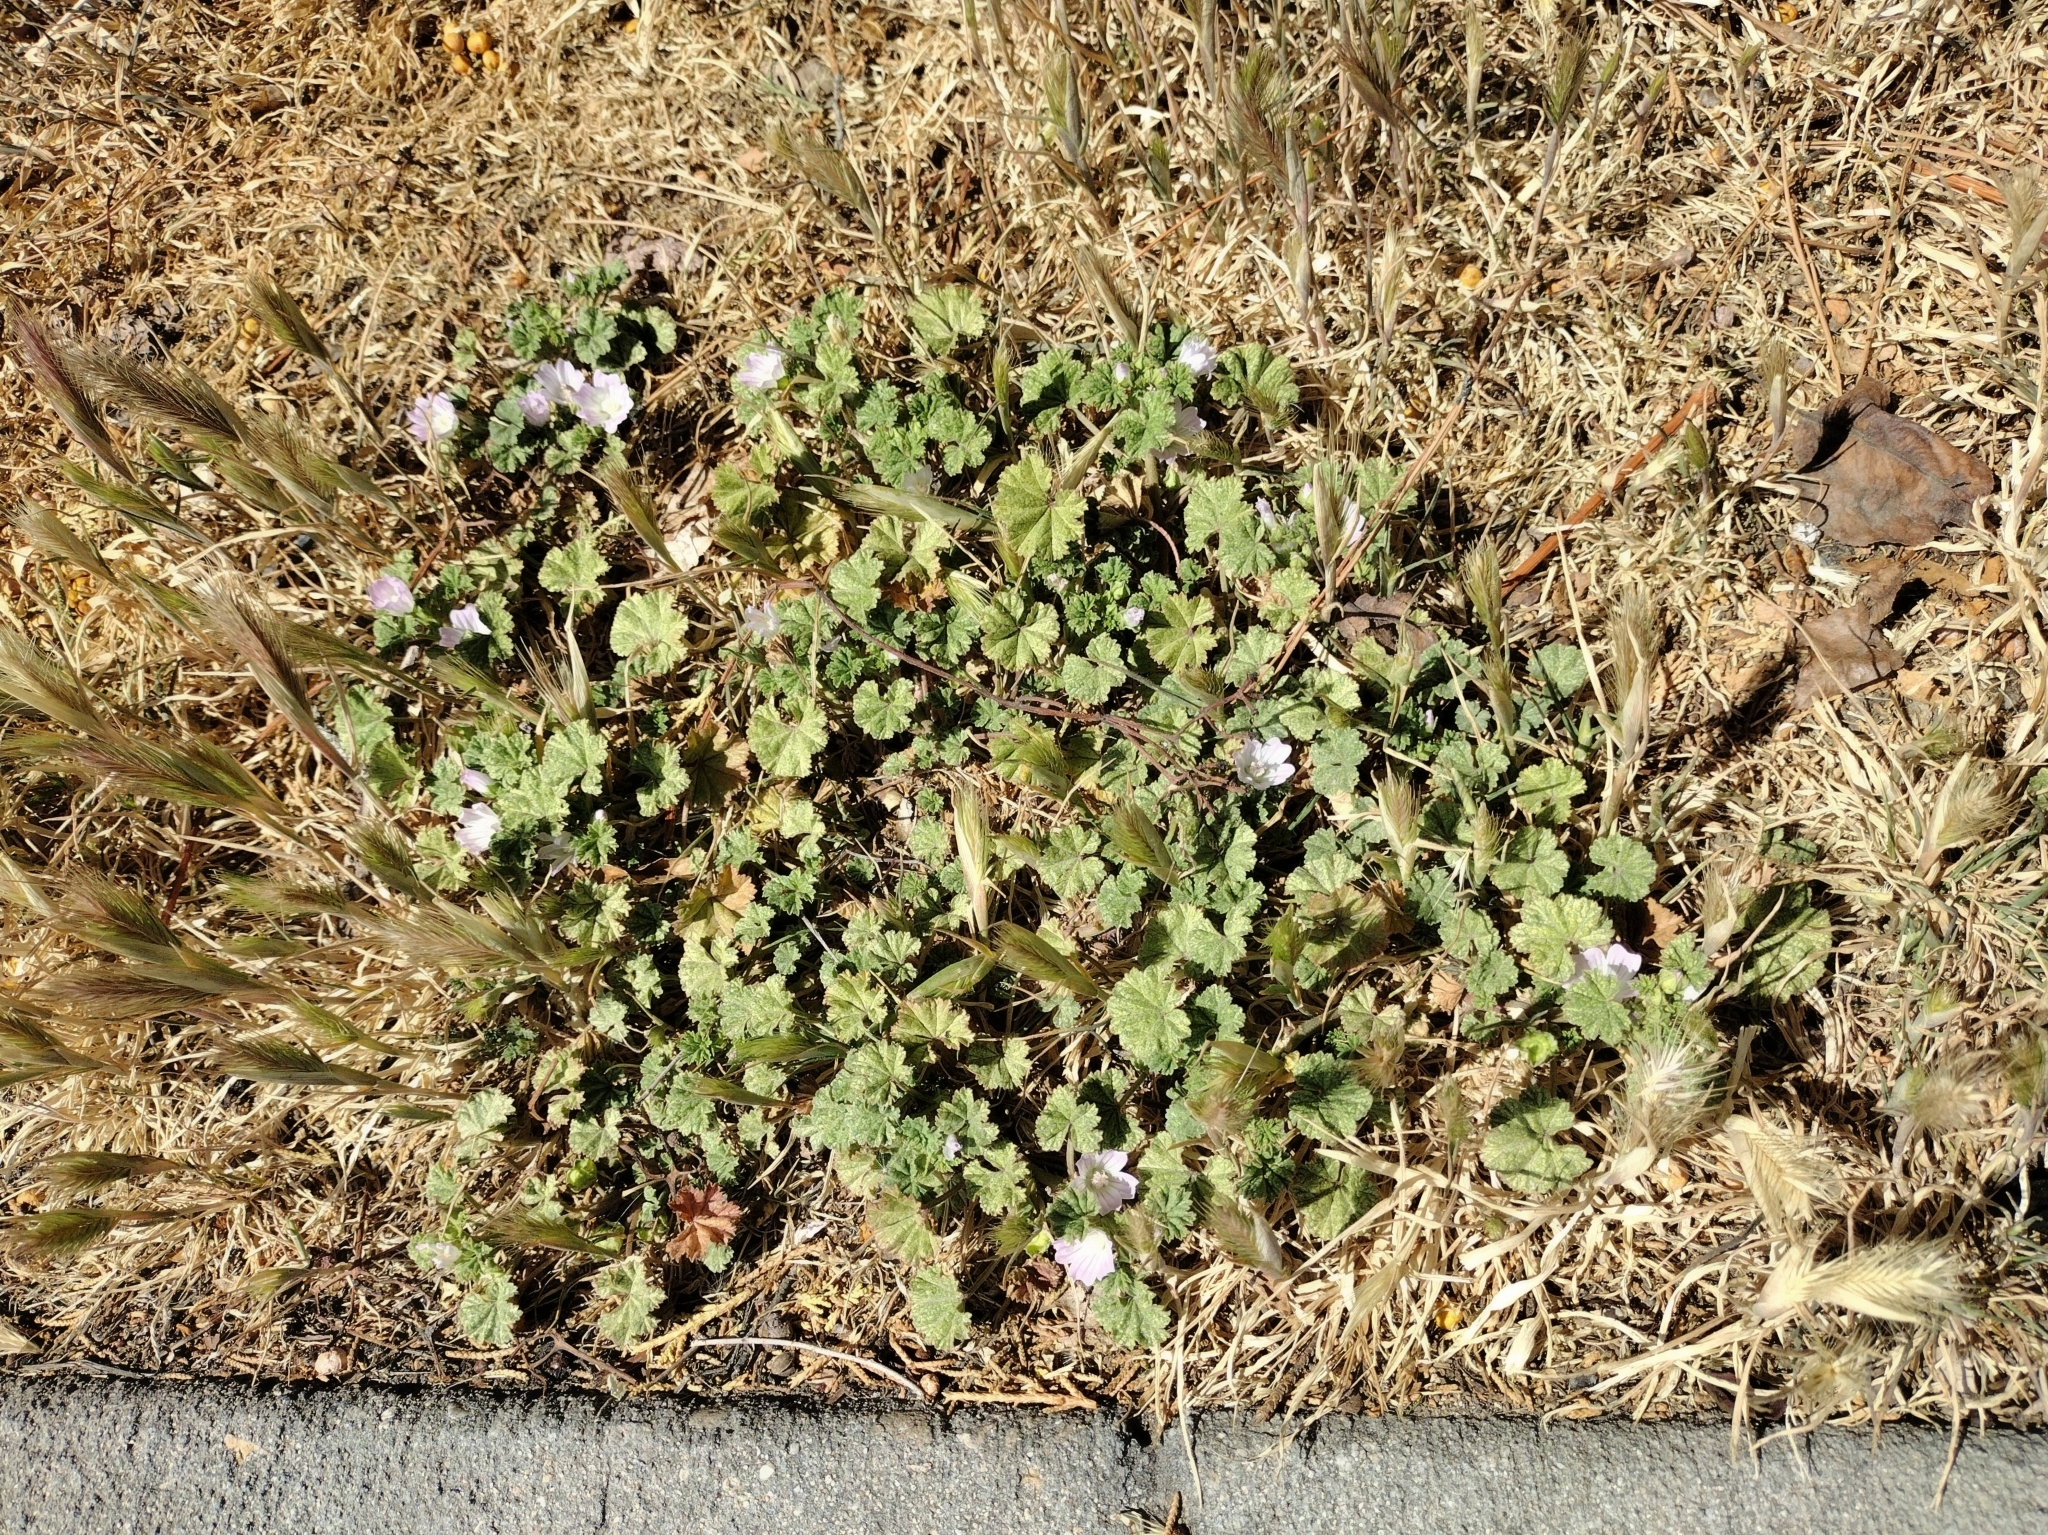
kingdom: Plantae
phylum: Tracheophyta
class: Magnoliopsida
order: Malvales
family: Malvaceae
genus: Malva
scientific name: Malva neglecta
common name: Common mallow
